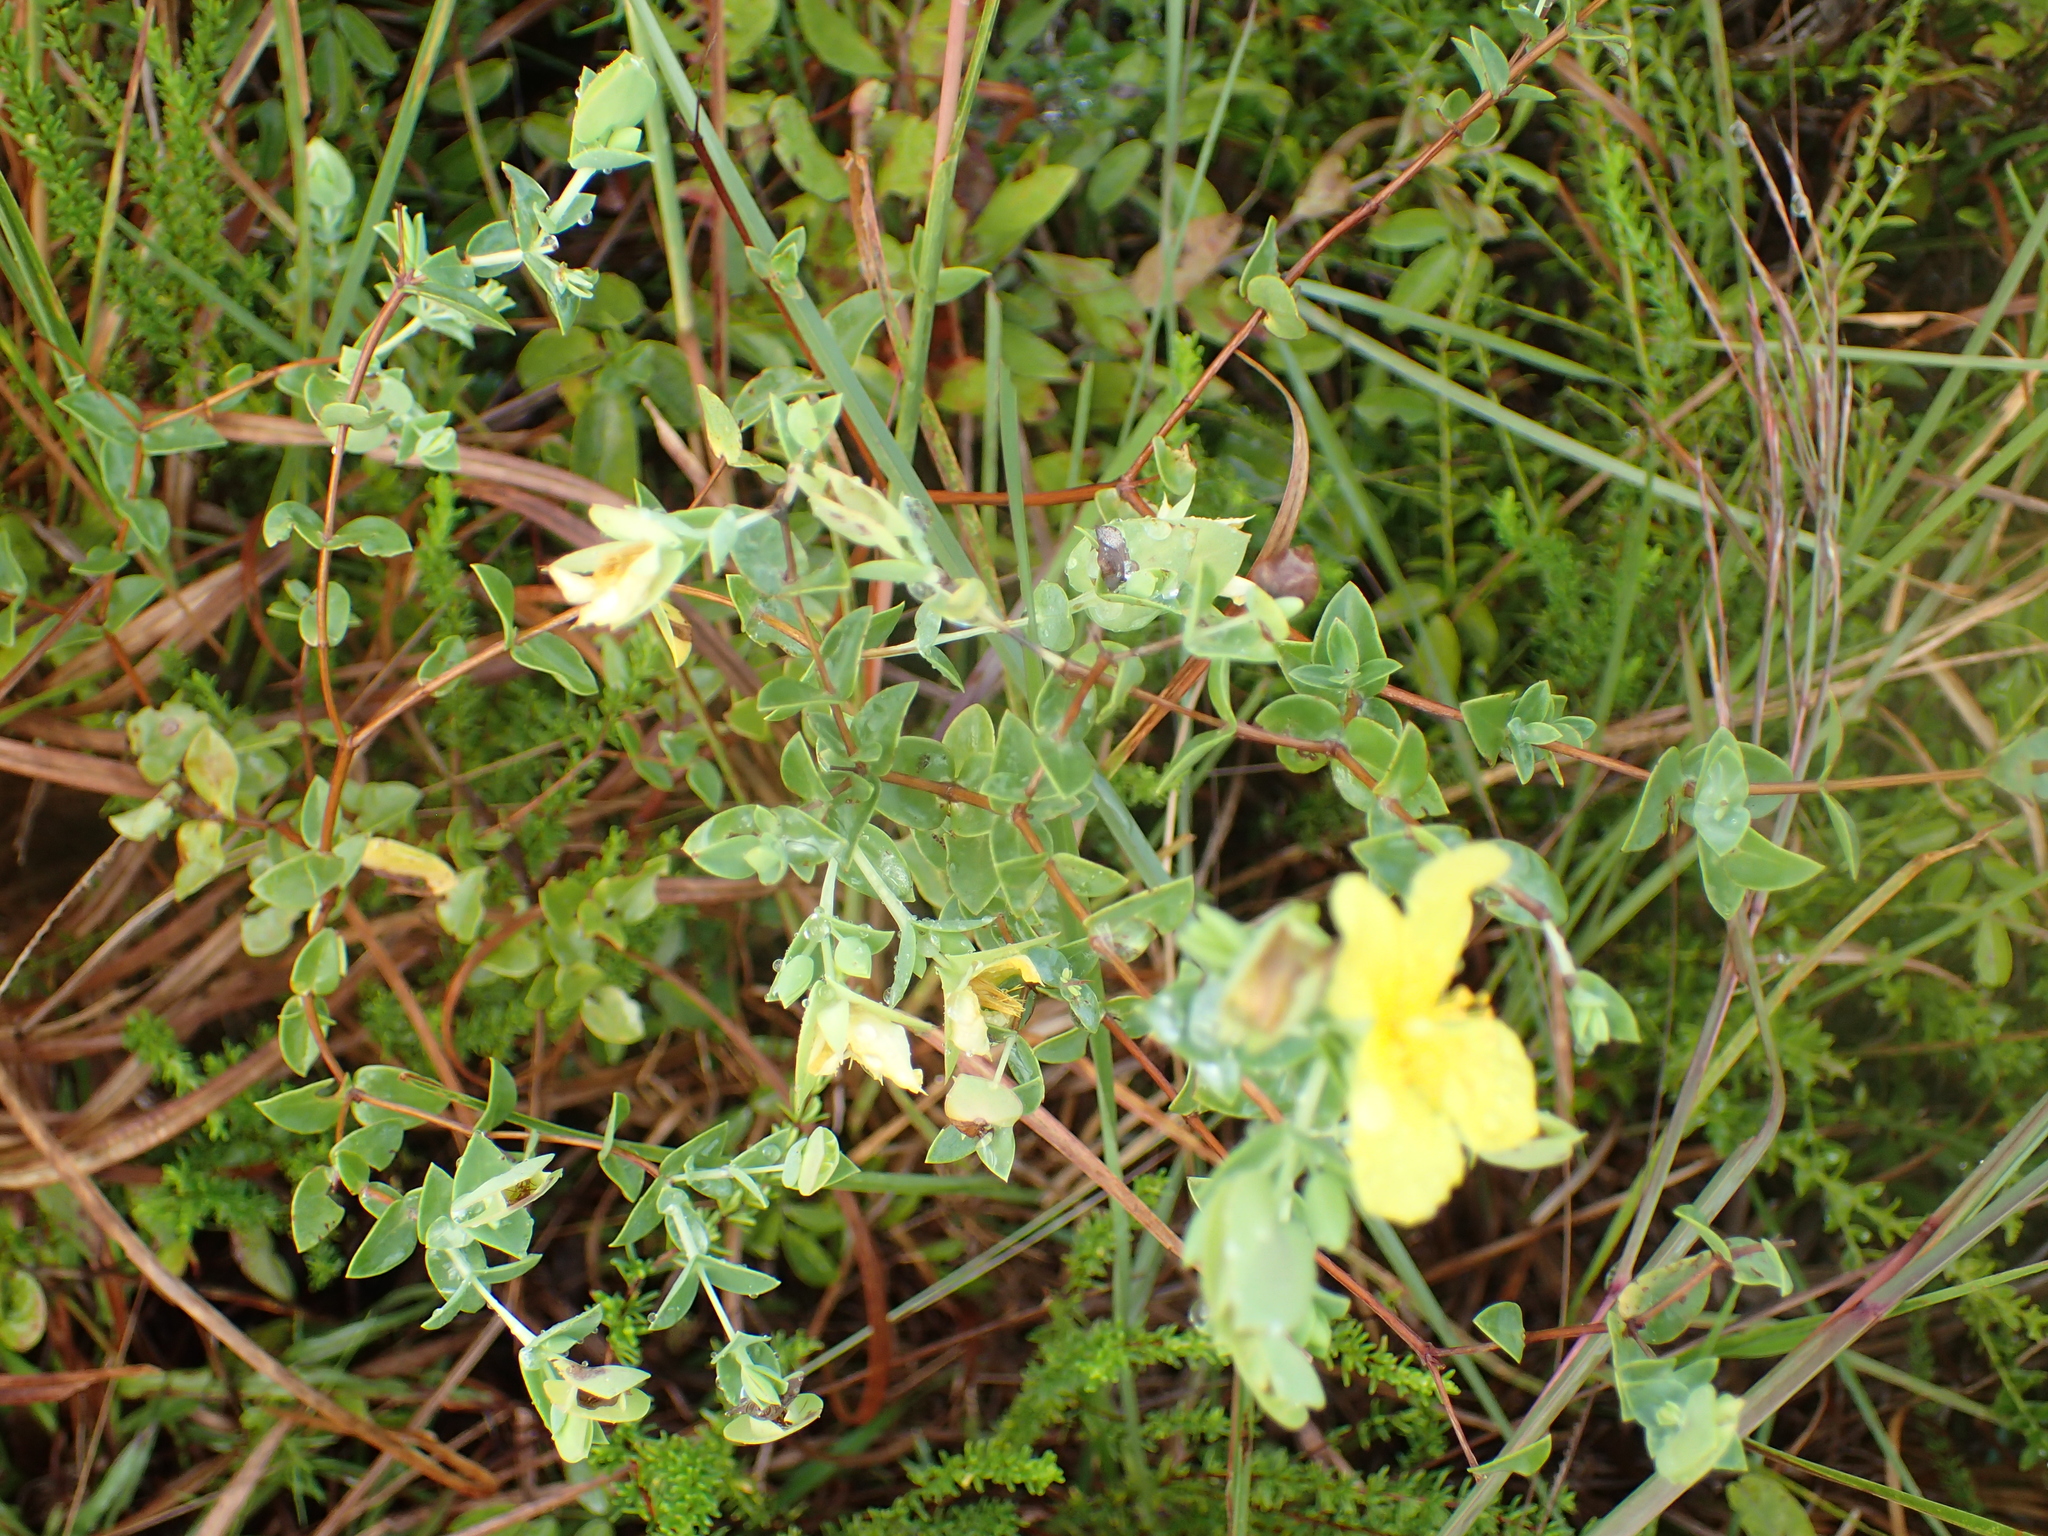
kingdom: Plantae
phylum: Tracheophyta
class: Magnoliopsida
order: Malpighiales
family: Hypericaceae
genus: Hypericum
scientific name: Hypericum tetrapetalum
